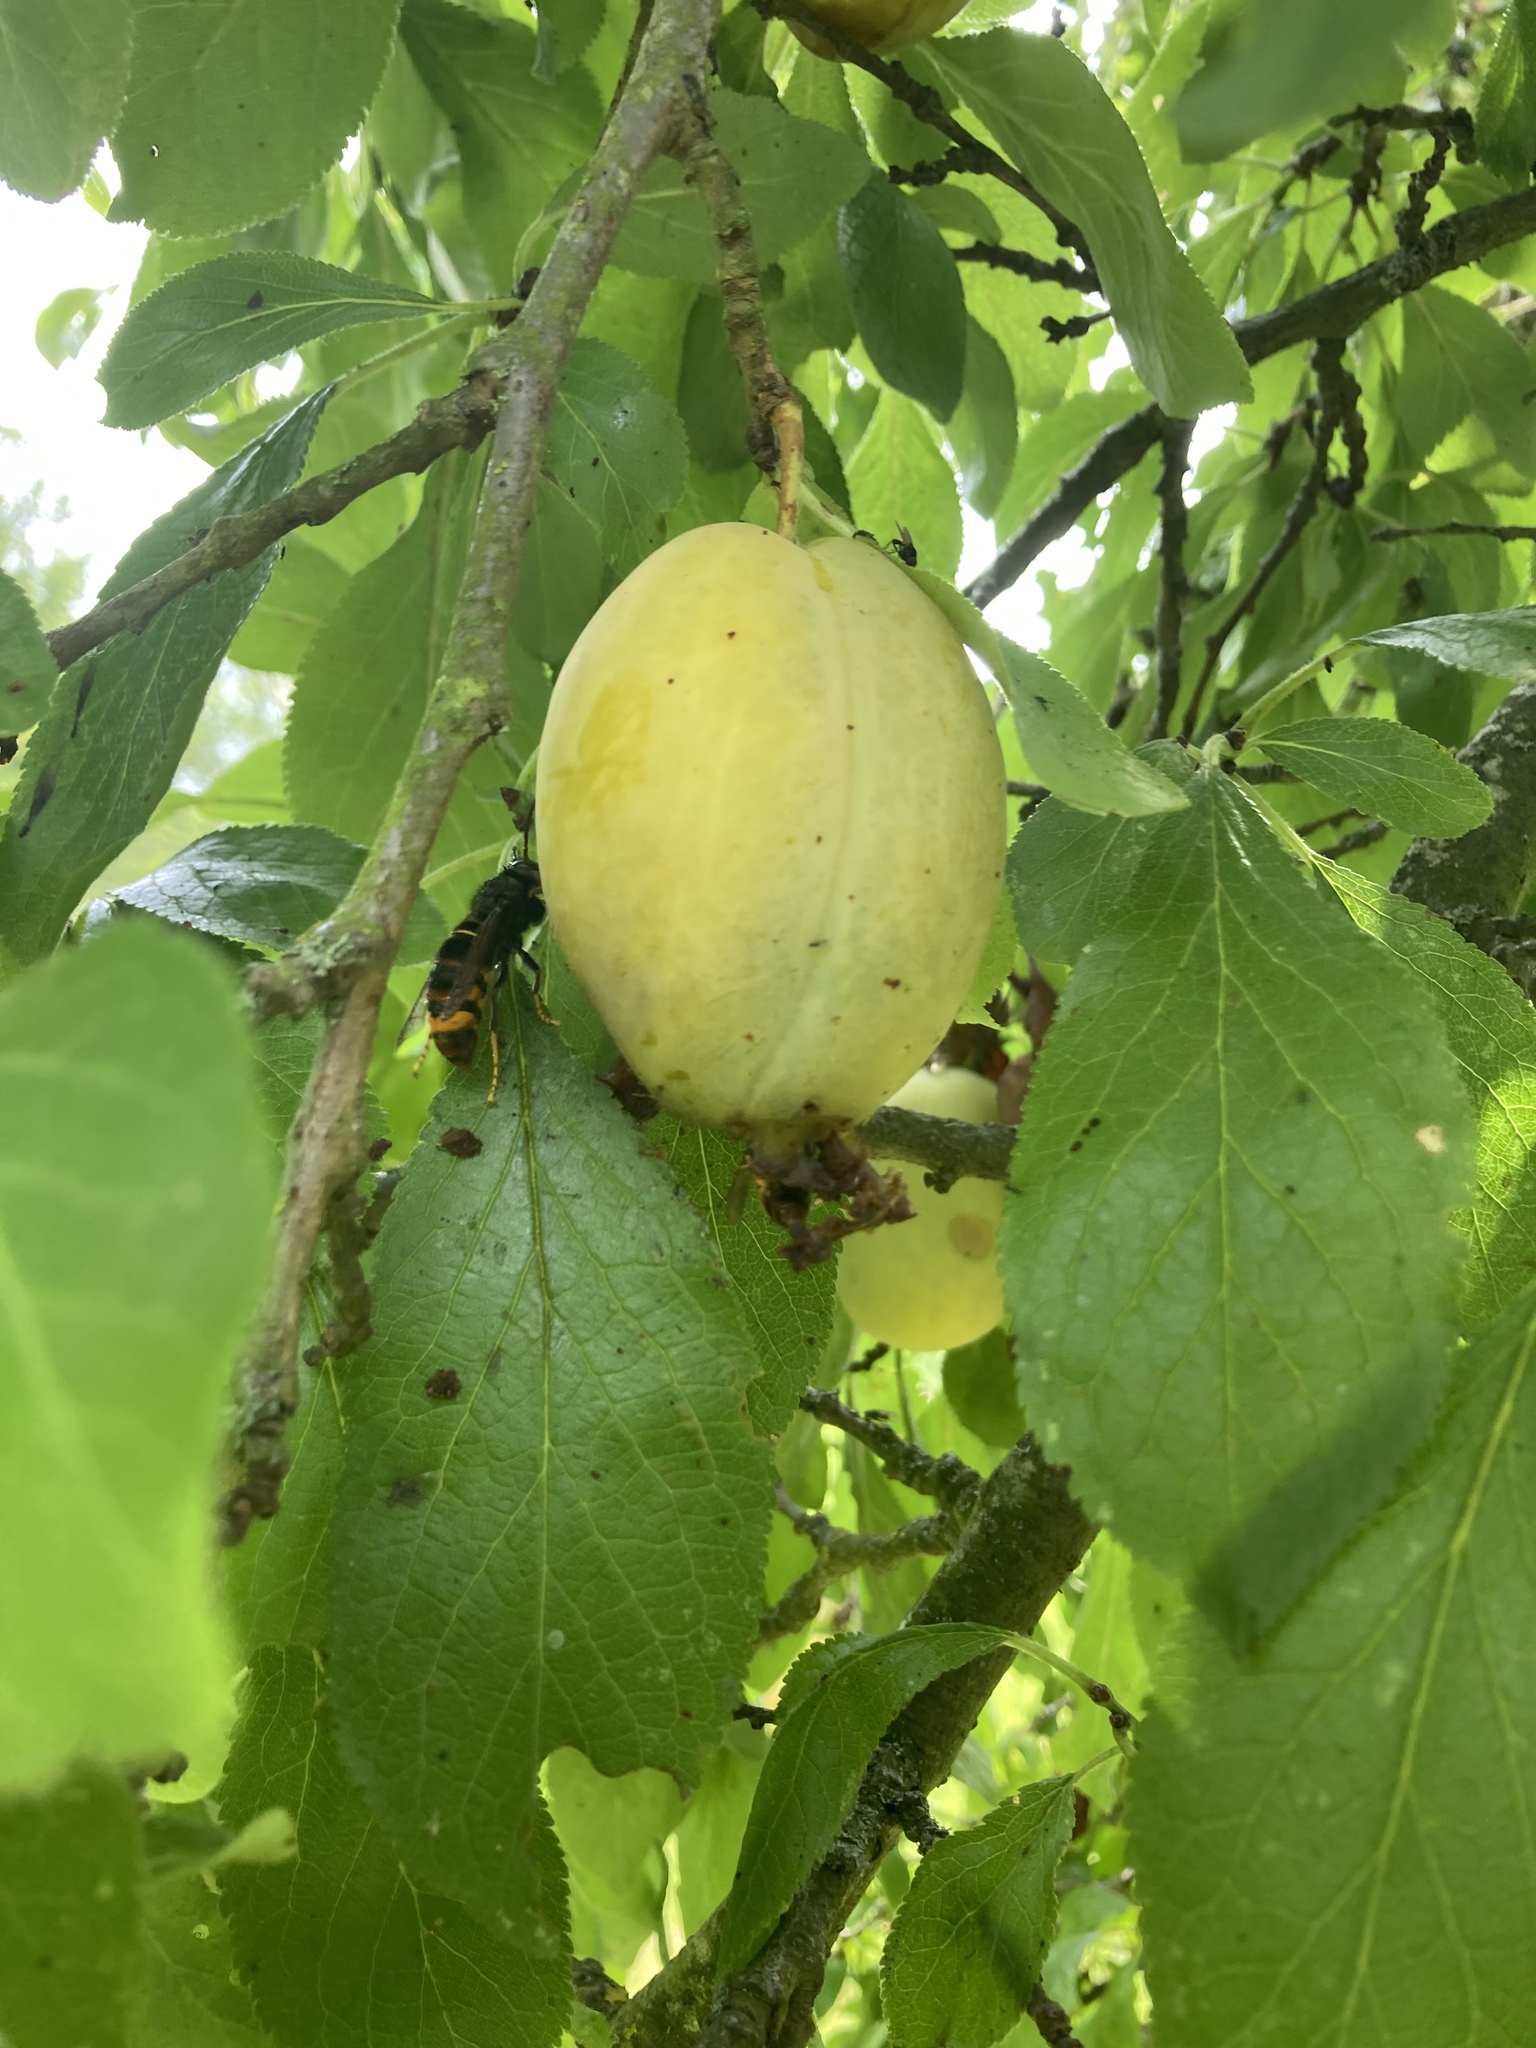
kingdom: Animalia
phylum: Arthropoda
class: Insecta
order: Hymenoptera
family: Vespidae
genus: Vespa
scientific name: Vespa velutina
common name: Asian hornet
